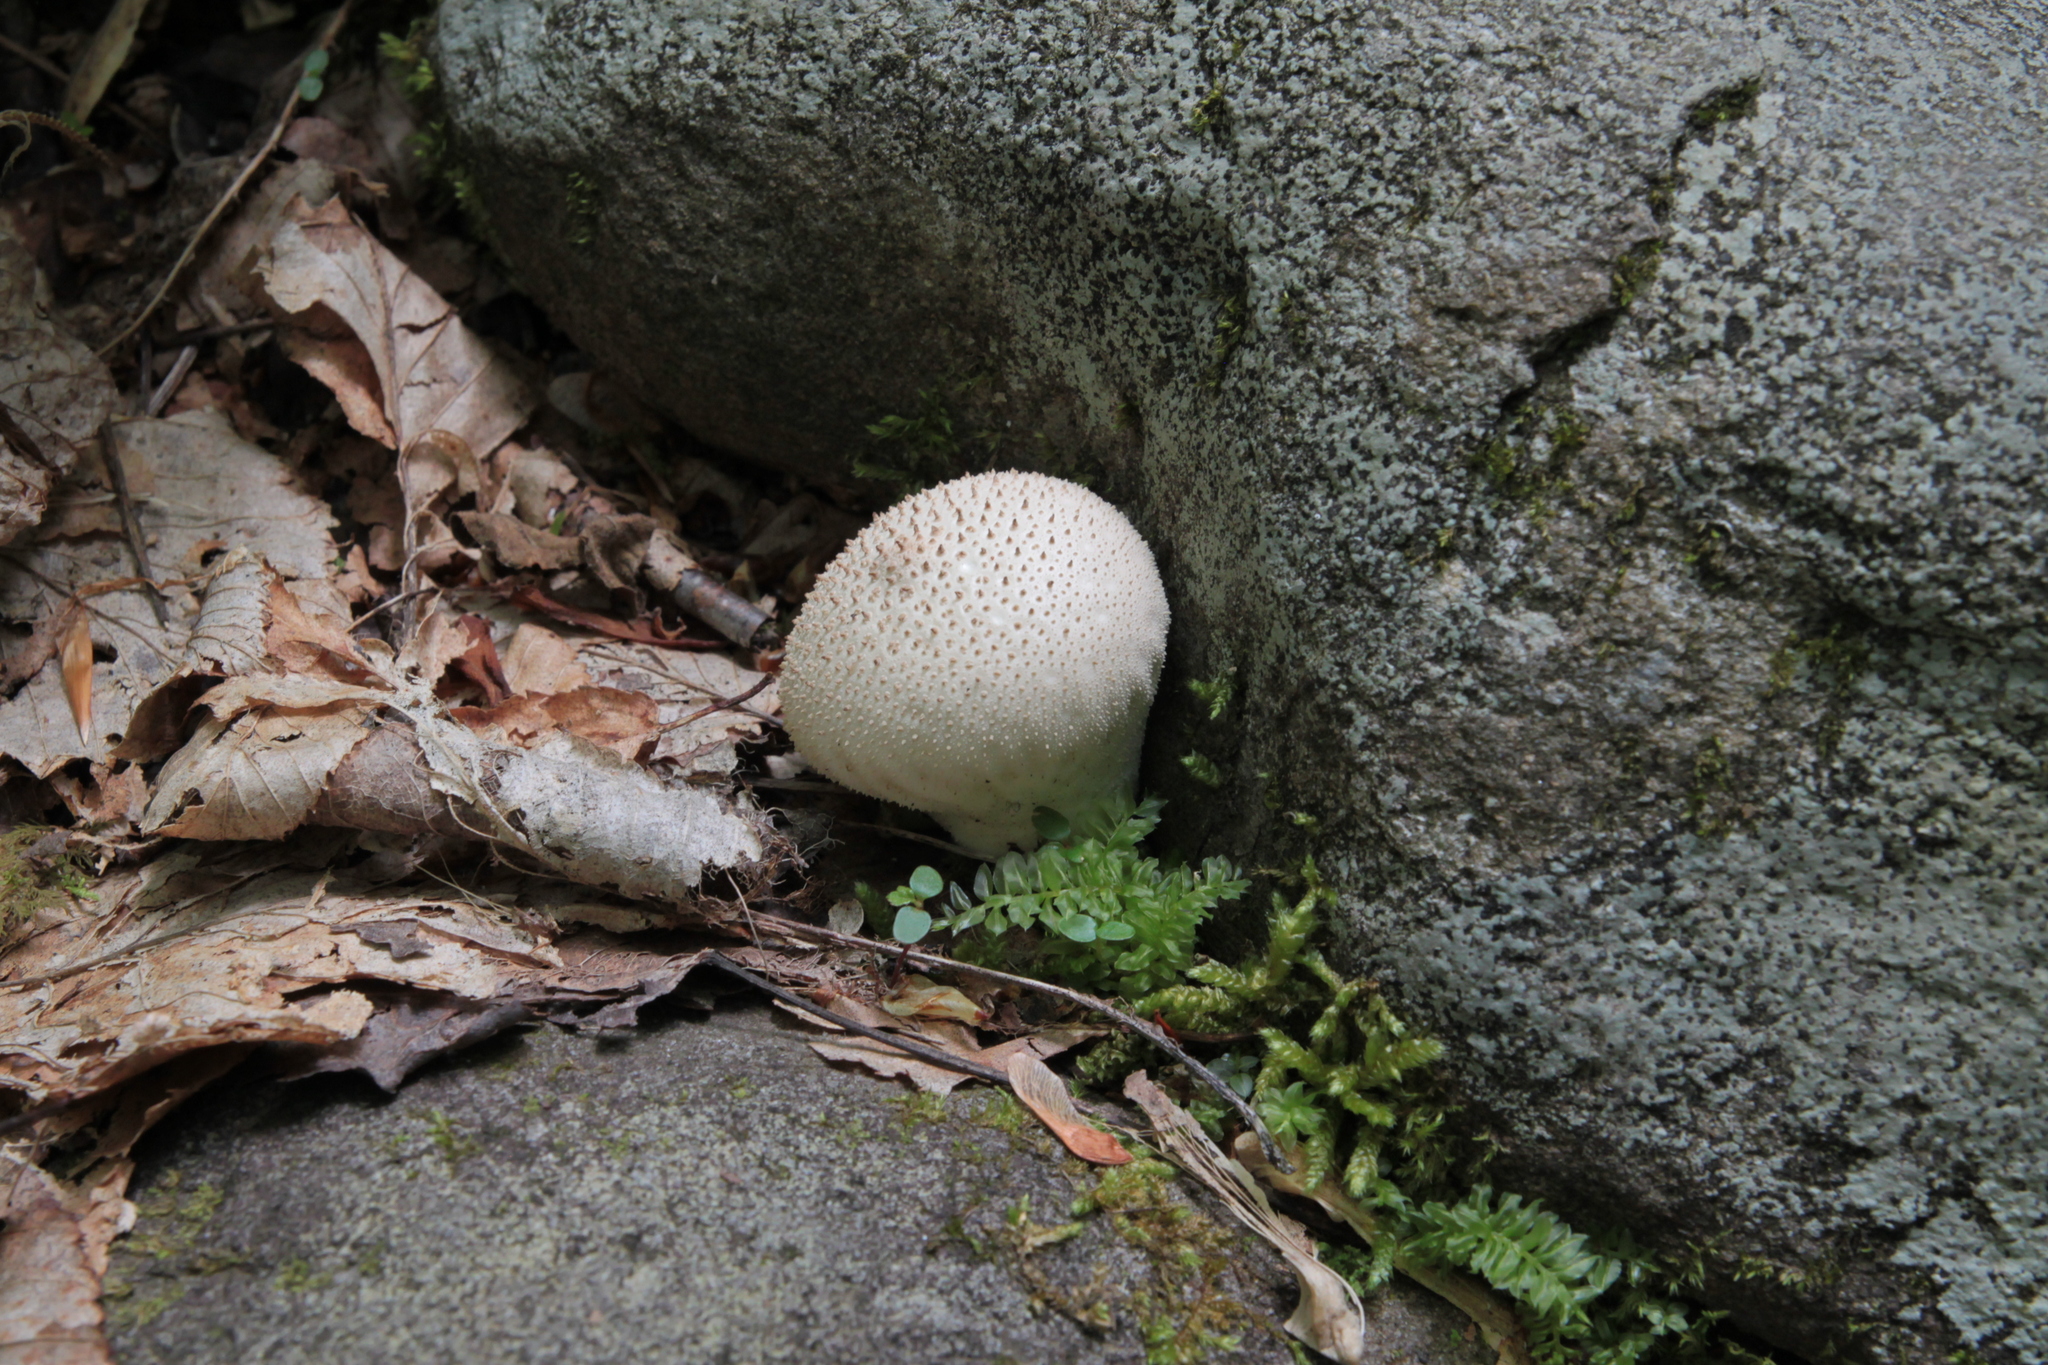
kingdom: Fungi
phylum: Basidiomycota
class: Agaricomycetes
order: Agaricales
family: Lycoperdaceae
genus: Lycoperdon
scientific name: Lycoperdon perlatum
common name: Common puffball
